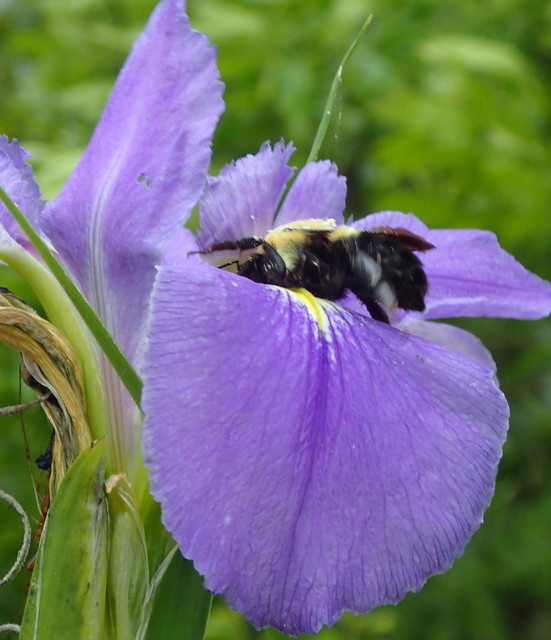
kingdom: Animalia
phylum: Arthropoda
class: Insecta
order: Hymenoptera
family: Apidae
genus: Bombus
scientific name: Bombus
